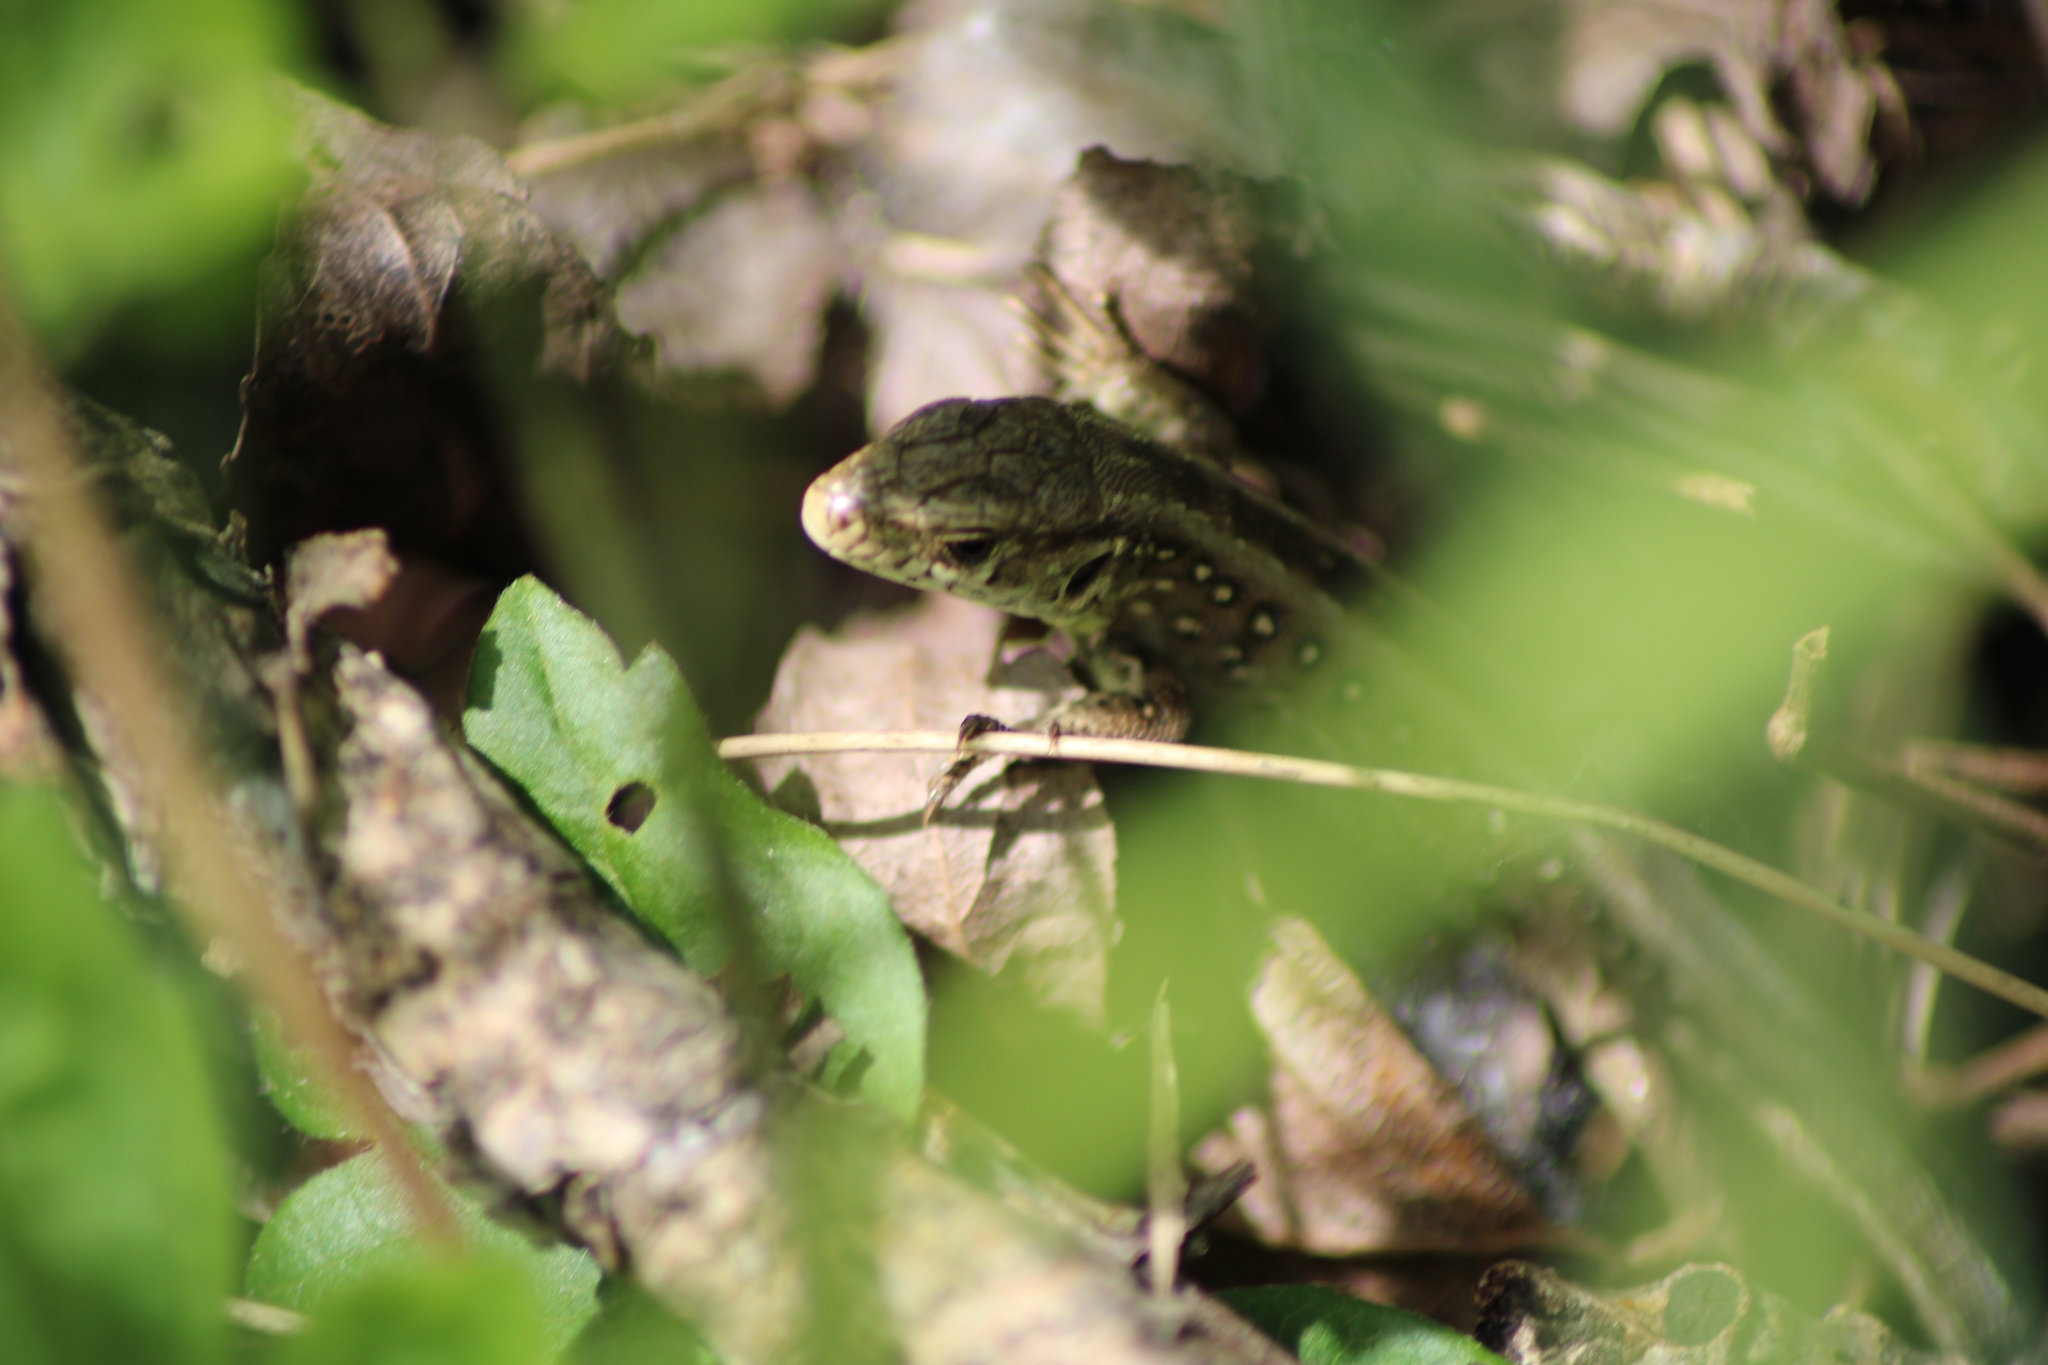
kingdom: Animalia
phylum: Chordata
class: Squamata
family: Lacertidae
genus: Lacerta
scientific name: Lacerta agilis
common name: Sand lizard
